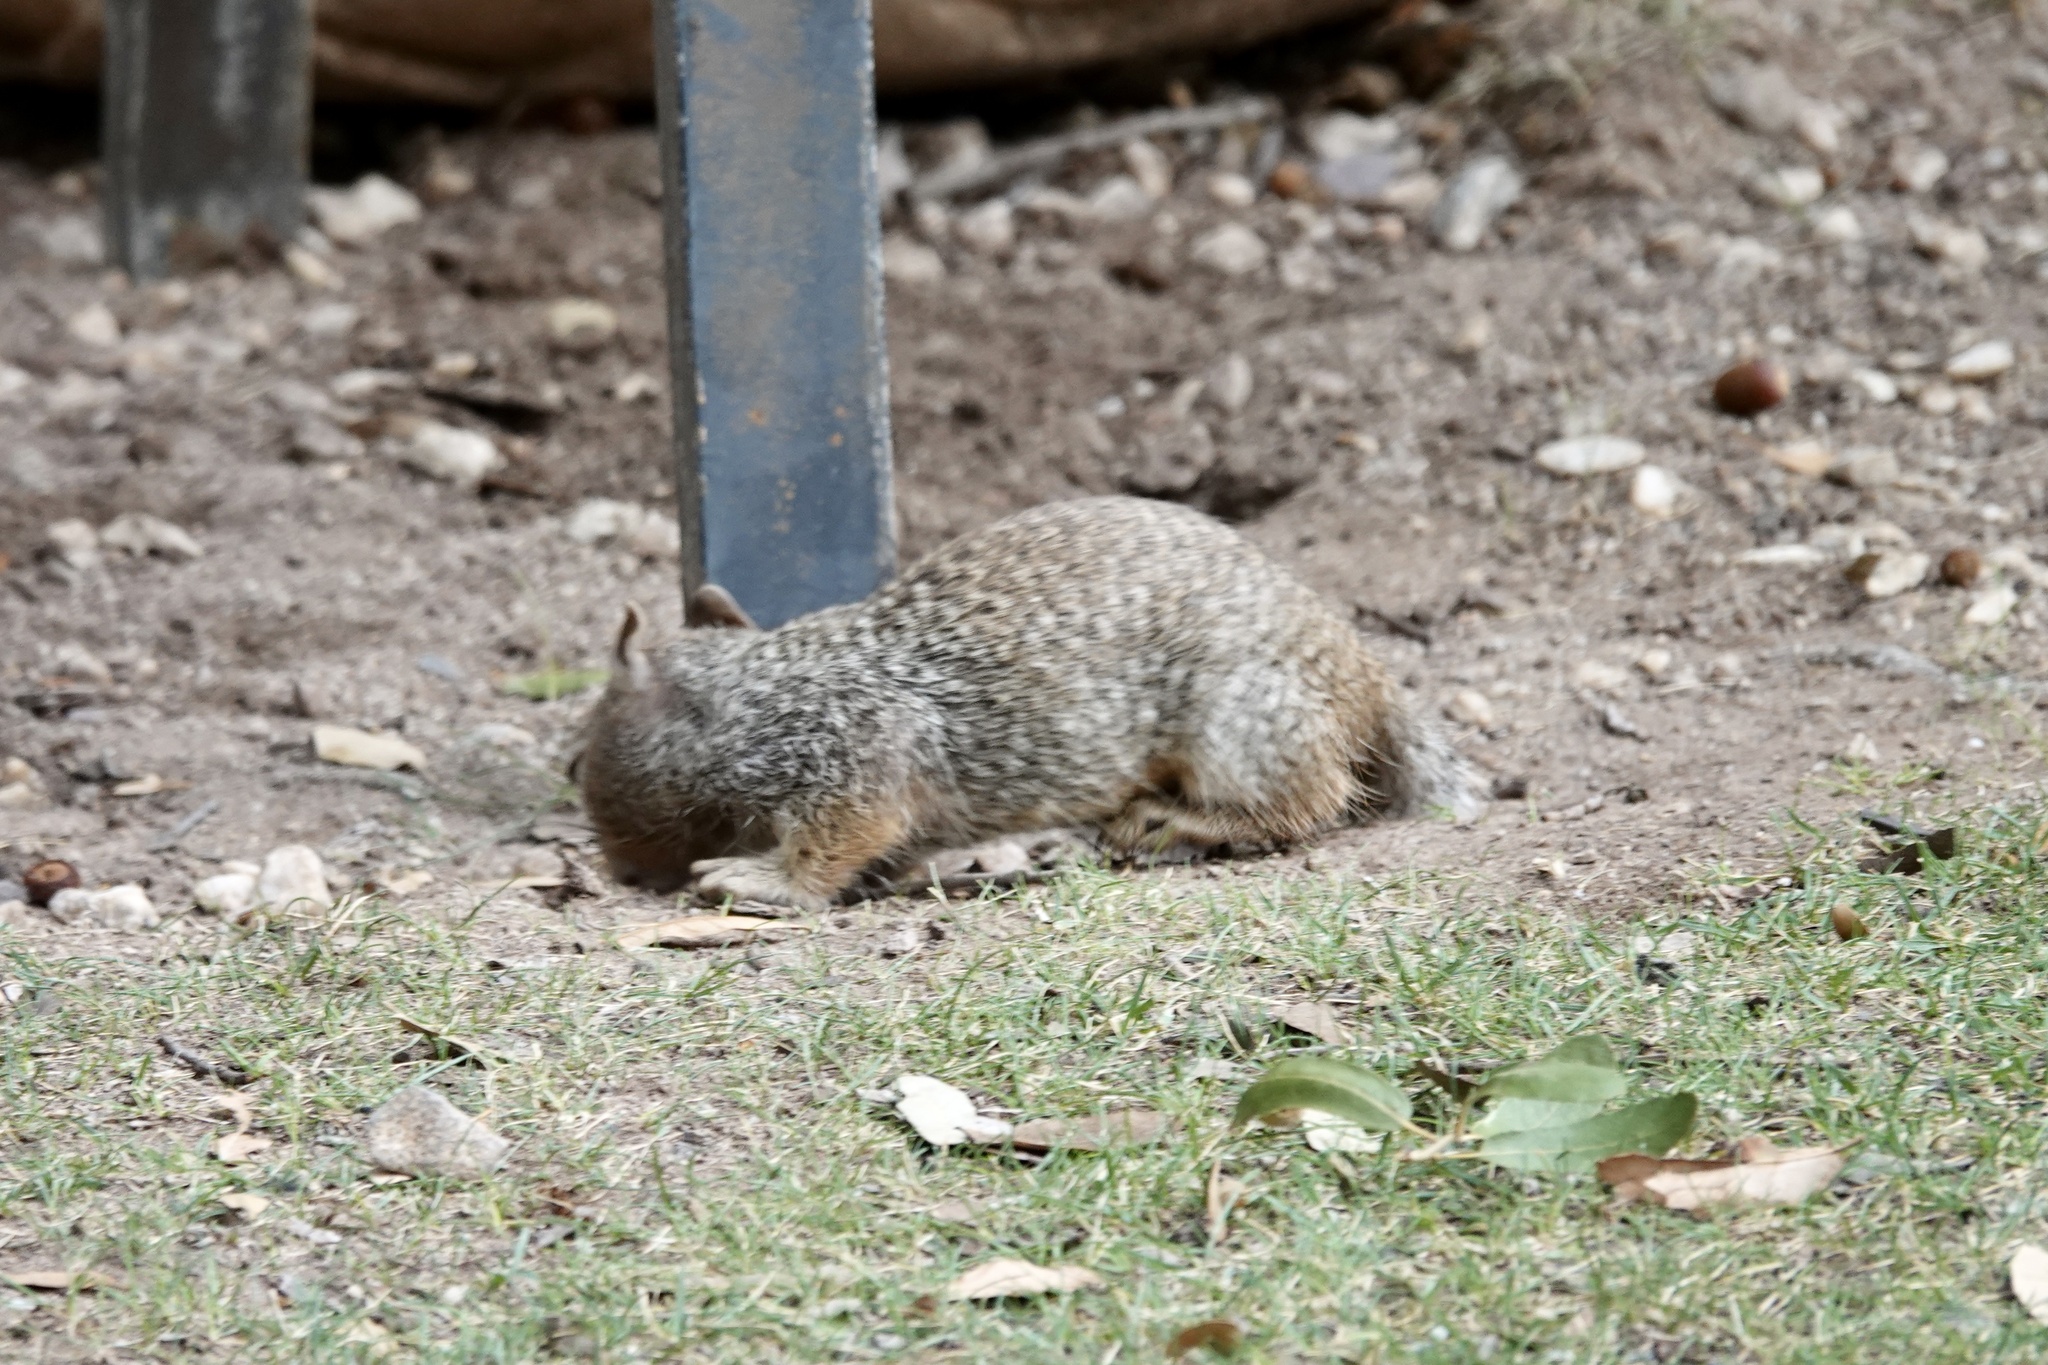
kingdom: Animalia
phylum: Chordata
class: Mammalia
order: Rodentia
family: Sciuridae
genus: Otospermophilus
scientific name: Otospermophilus variegatus
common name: Rock squirrel
